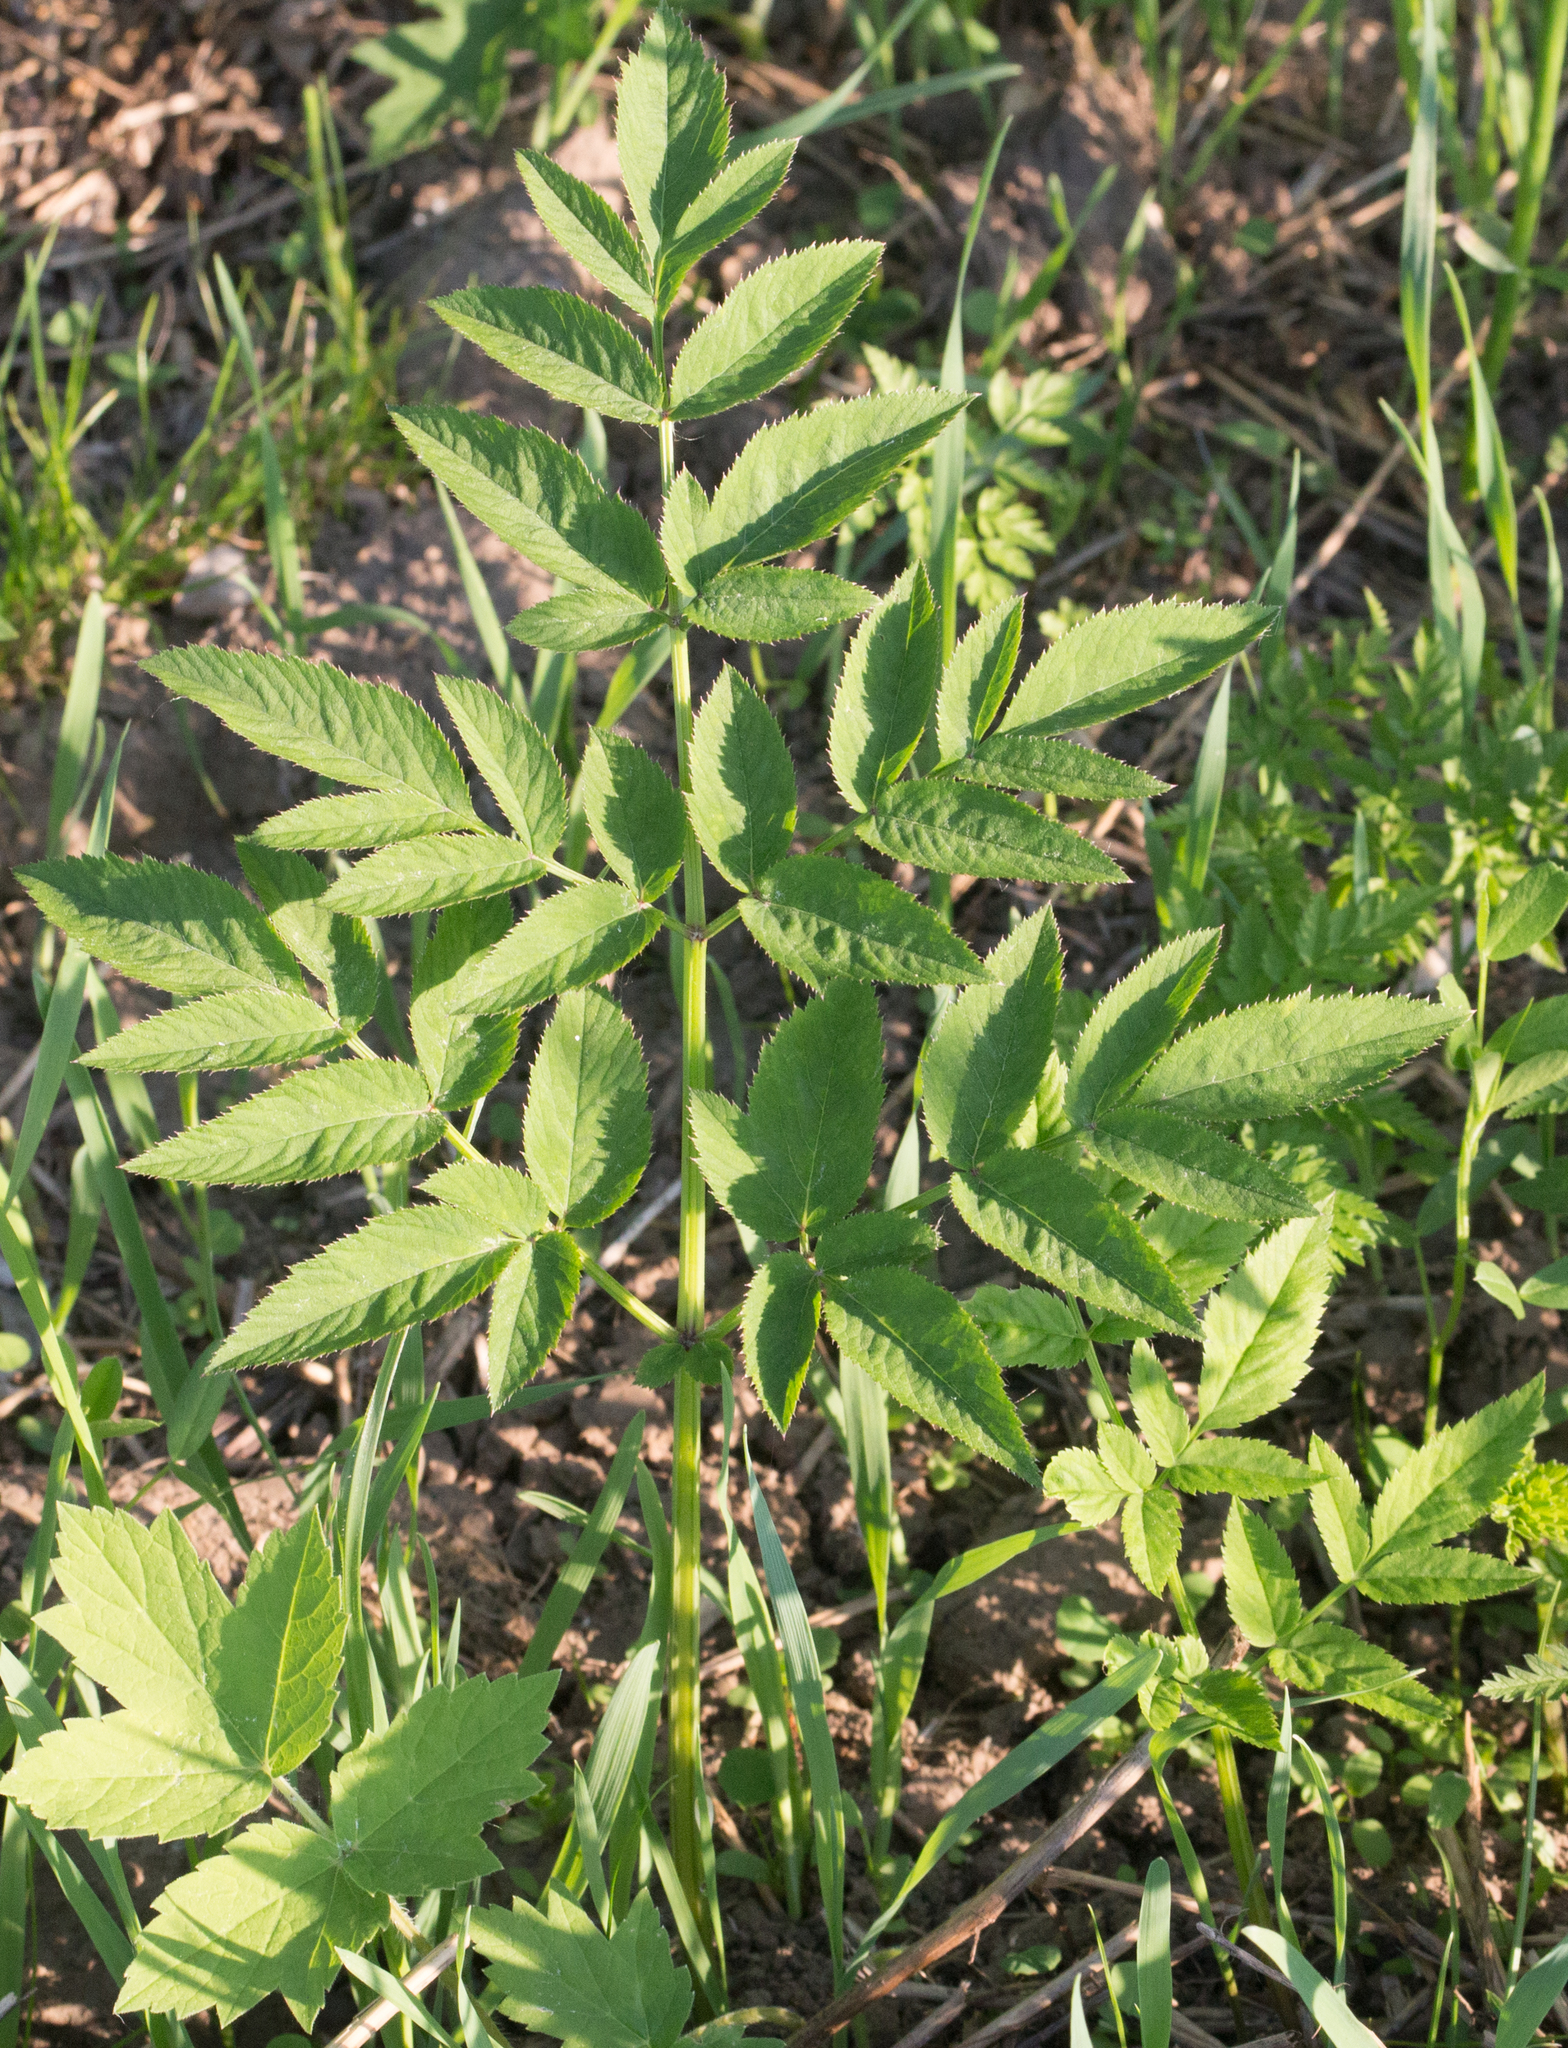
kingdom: Plantae
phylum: Tracheophyta
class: Magnoliopsida
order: Apiales
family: Apiaceae
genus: Angelica
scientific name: Angelica sylvestris
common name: Wild angelica
